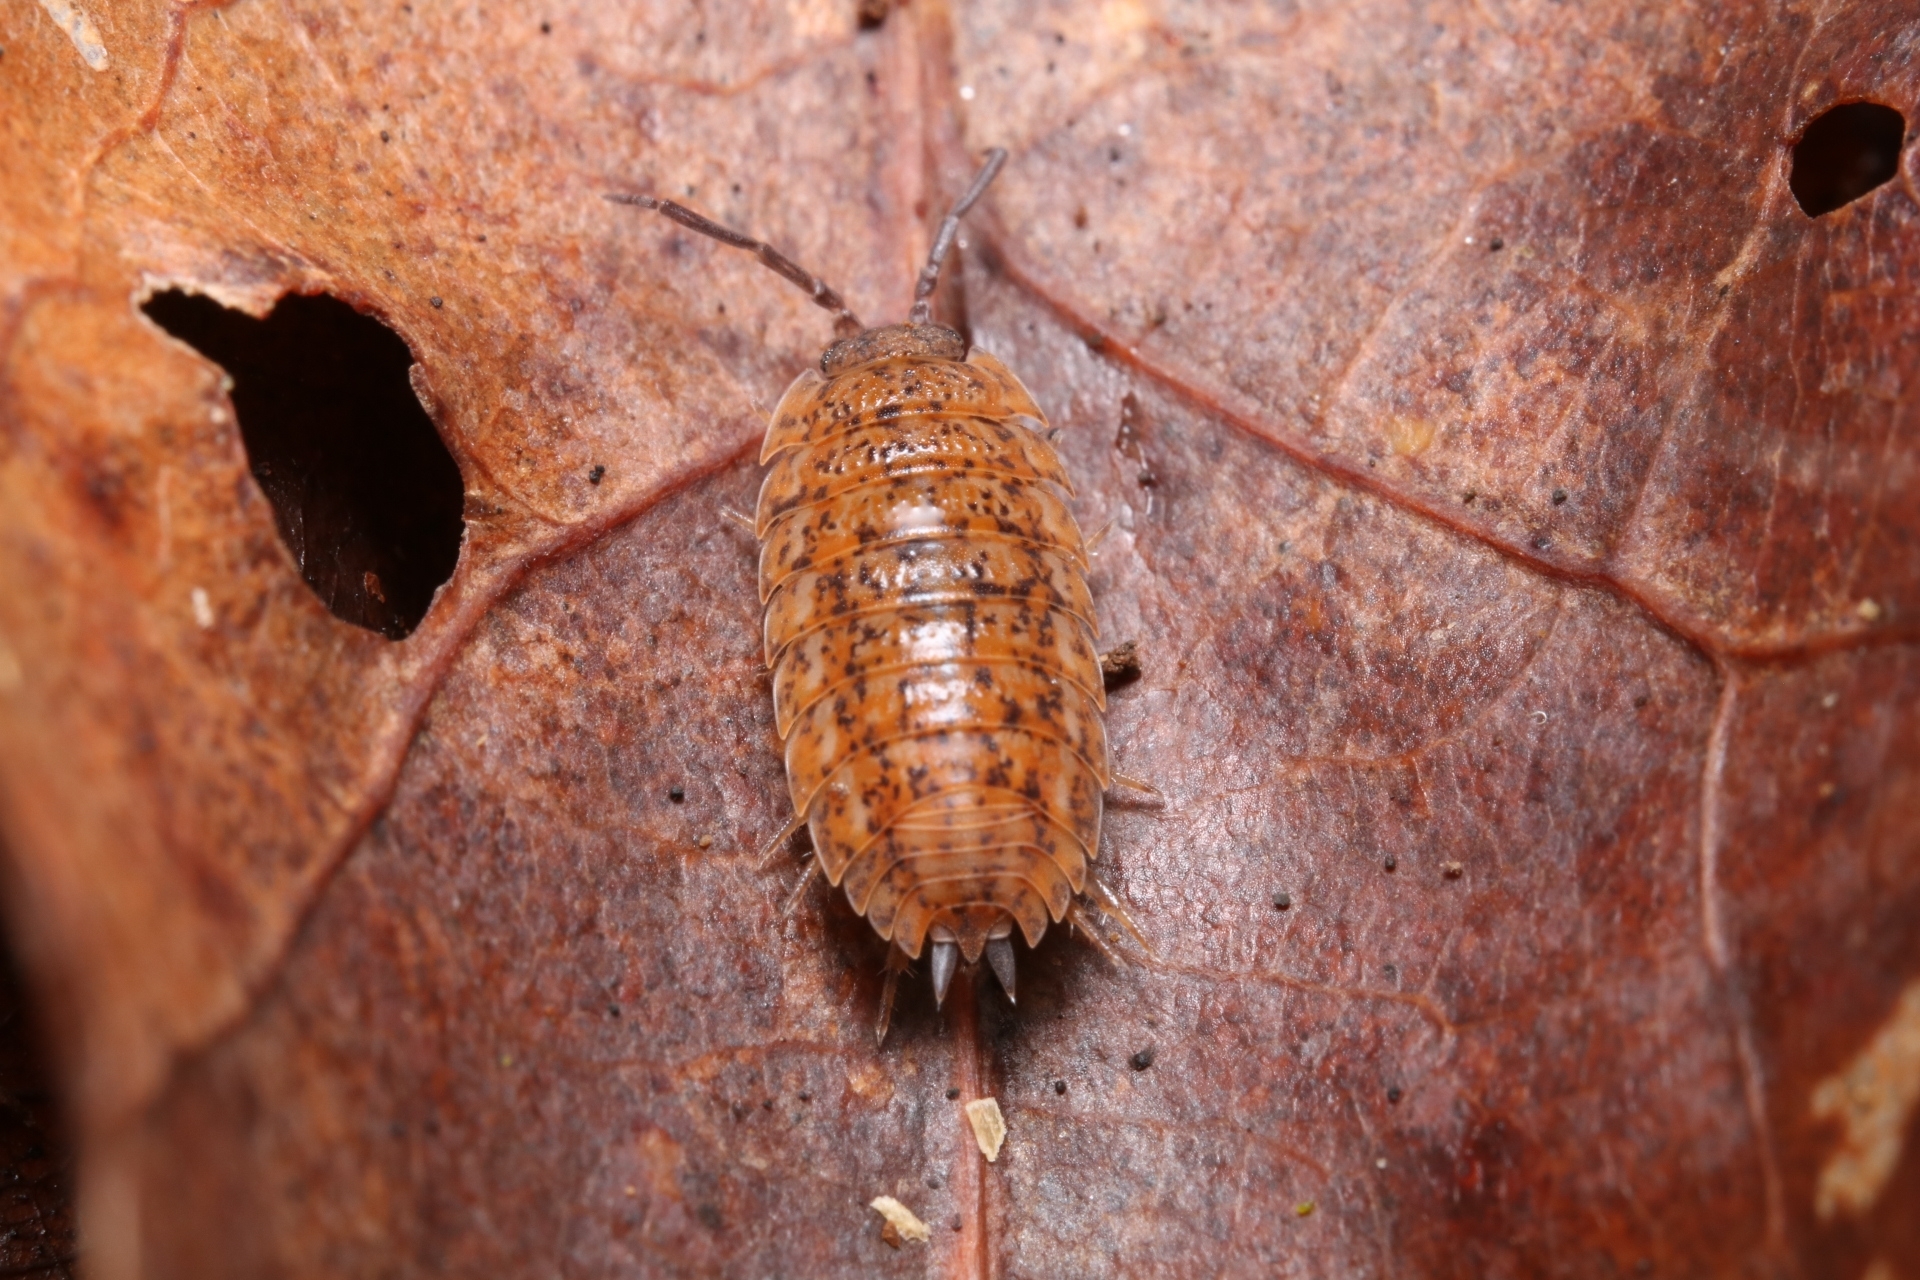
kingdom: Animalia
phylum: Arthropoda
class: Malacostraca
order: Isopoda
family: Trachelipodidae
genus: Trachelipus
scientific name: Trachelipus rathkii
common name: Isopod
